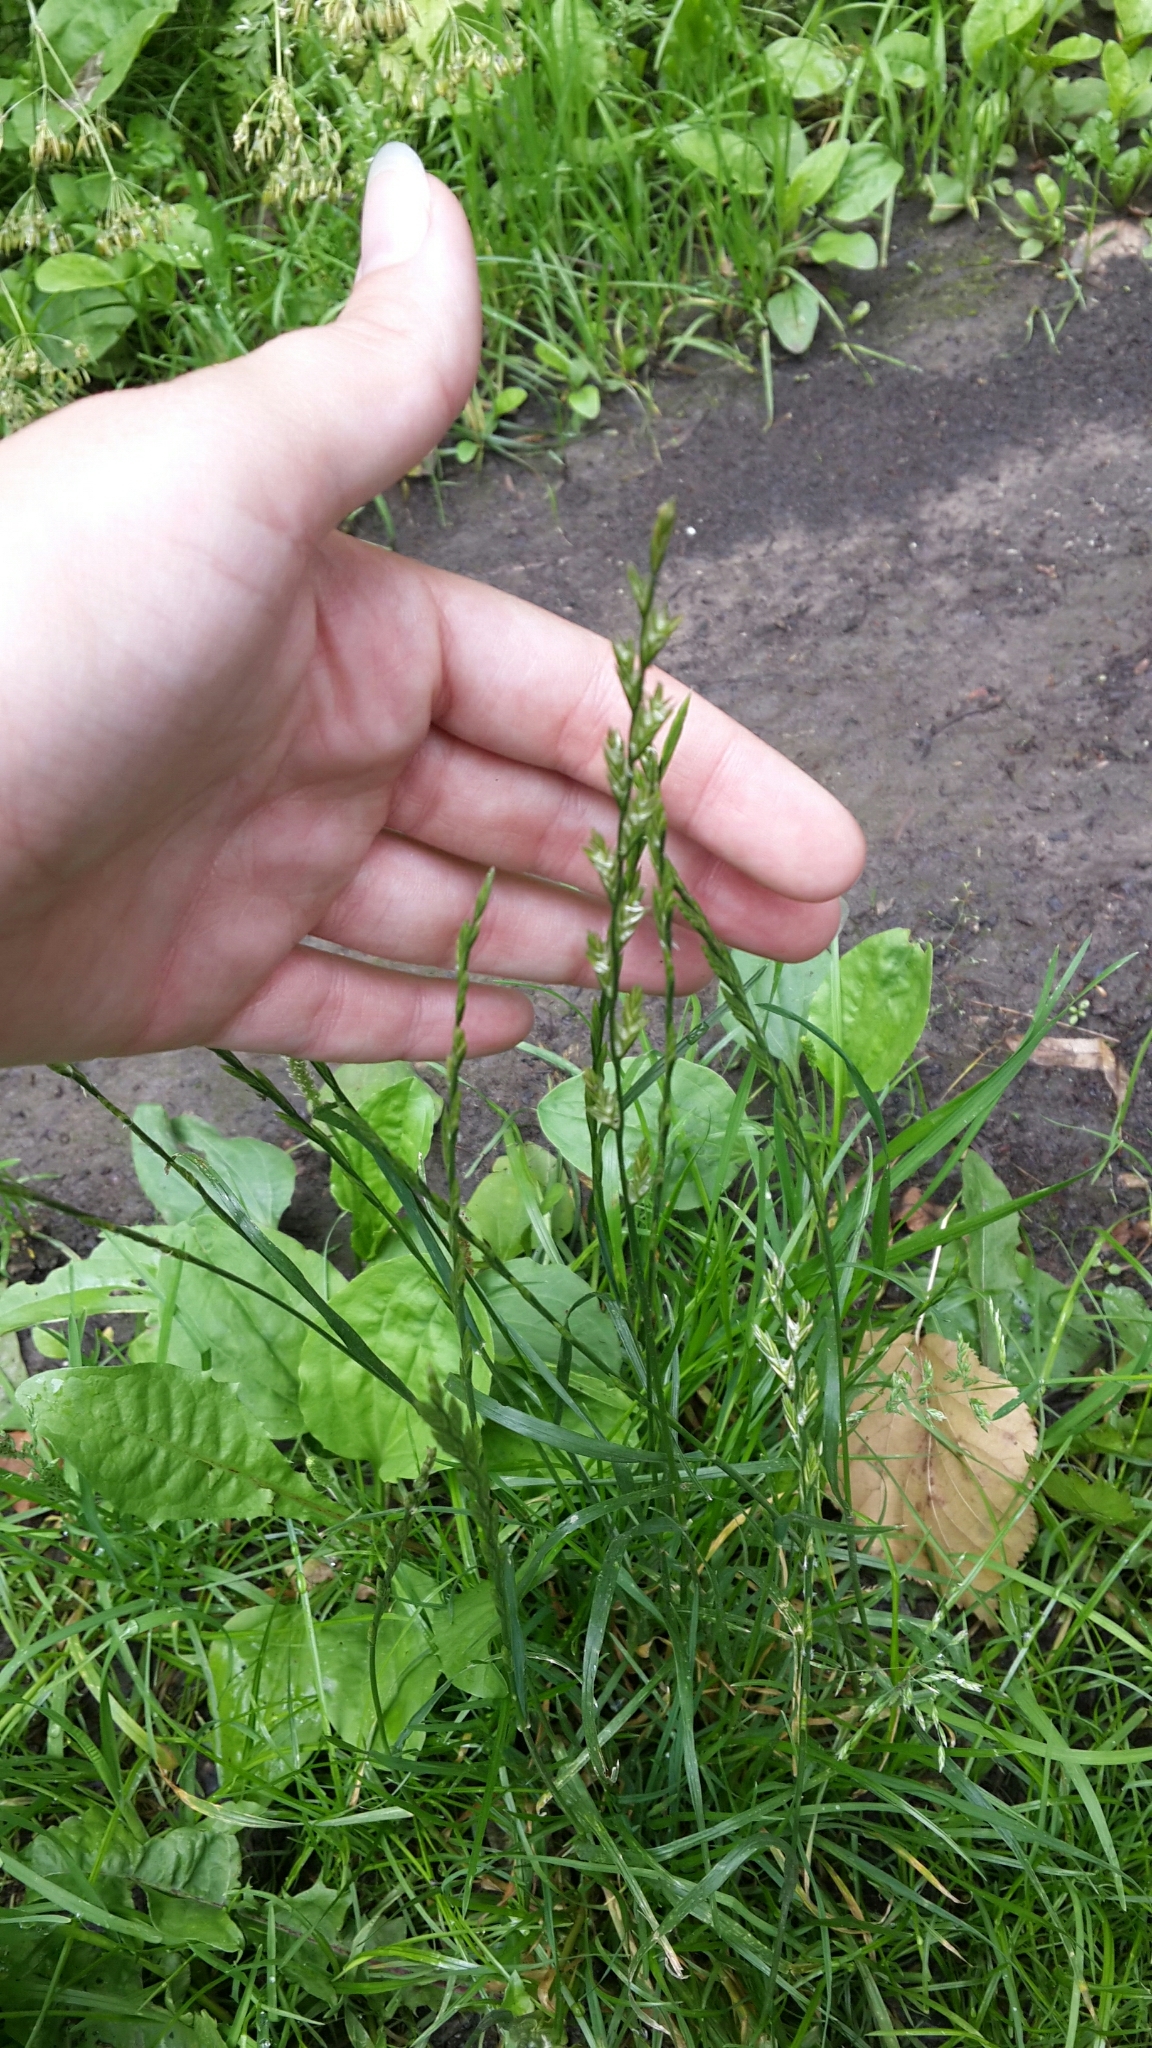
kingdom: Plantae
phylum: Tracheophyta
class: Liliopsida
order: Poales
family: Poaceae
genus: Lolium
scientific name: Lolium perenne
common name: Perennial ryegrass
